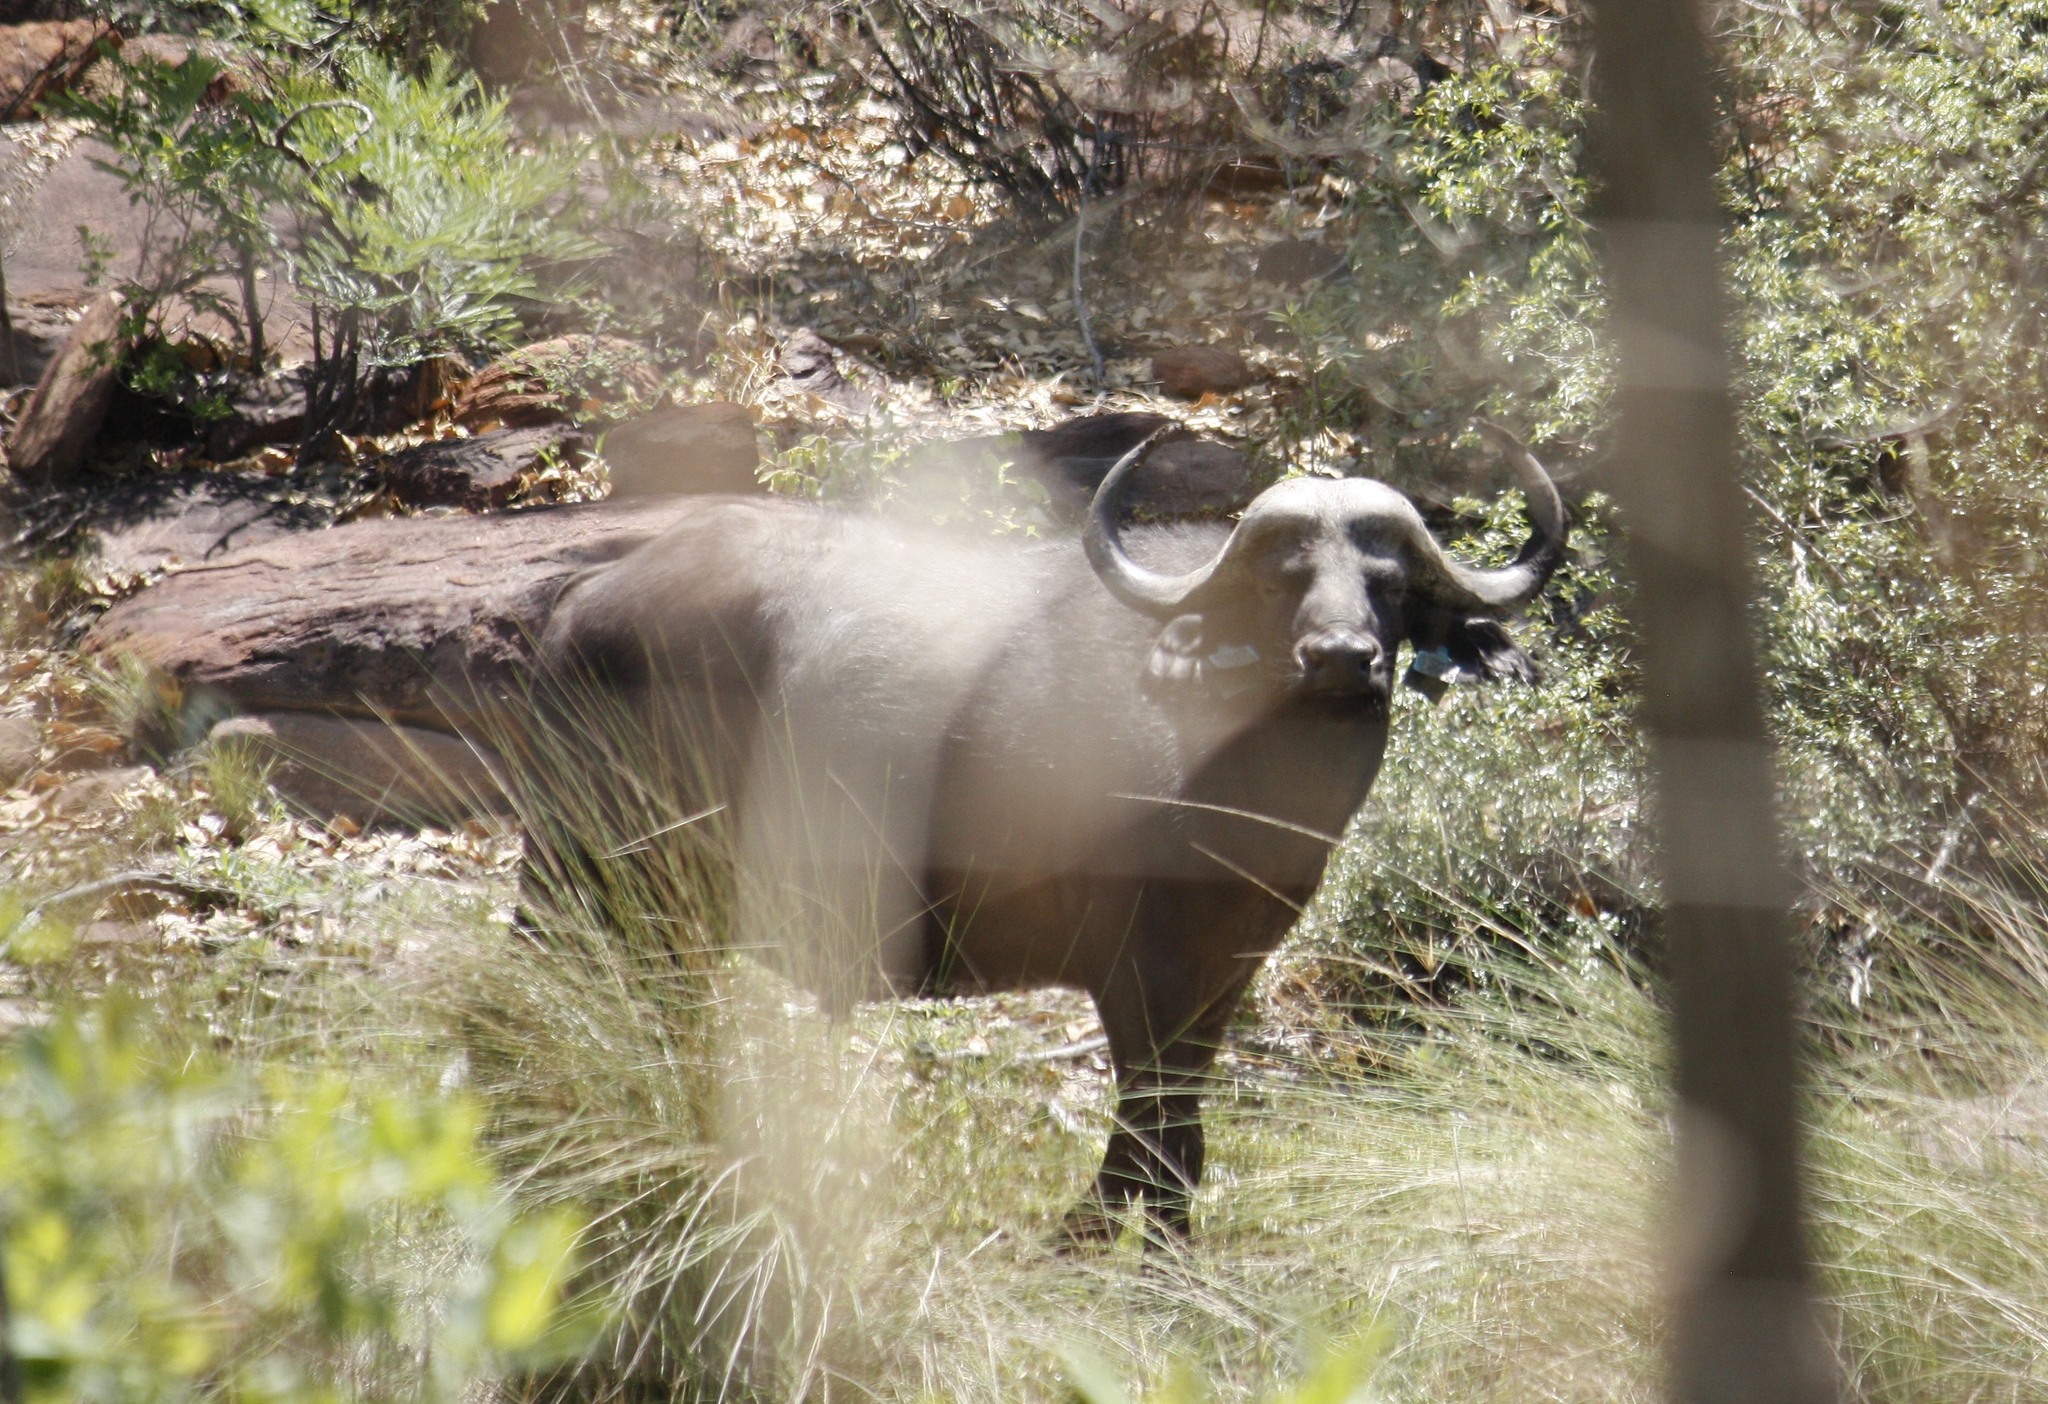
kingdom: Animalia
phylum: Chordata
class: Mammalia
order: Artiodactyla
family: Bovidae
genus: Syncerus
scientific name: Syncerus caffer
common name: African buffalo
